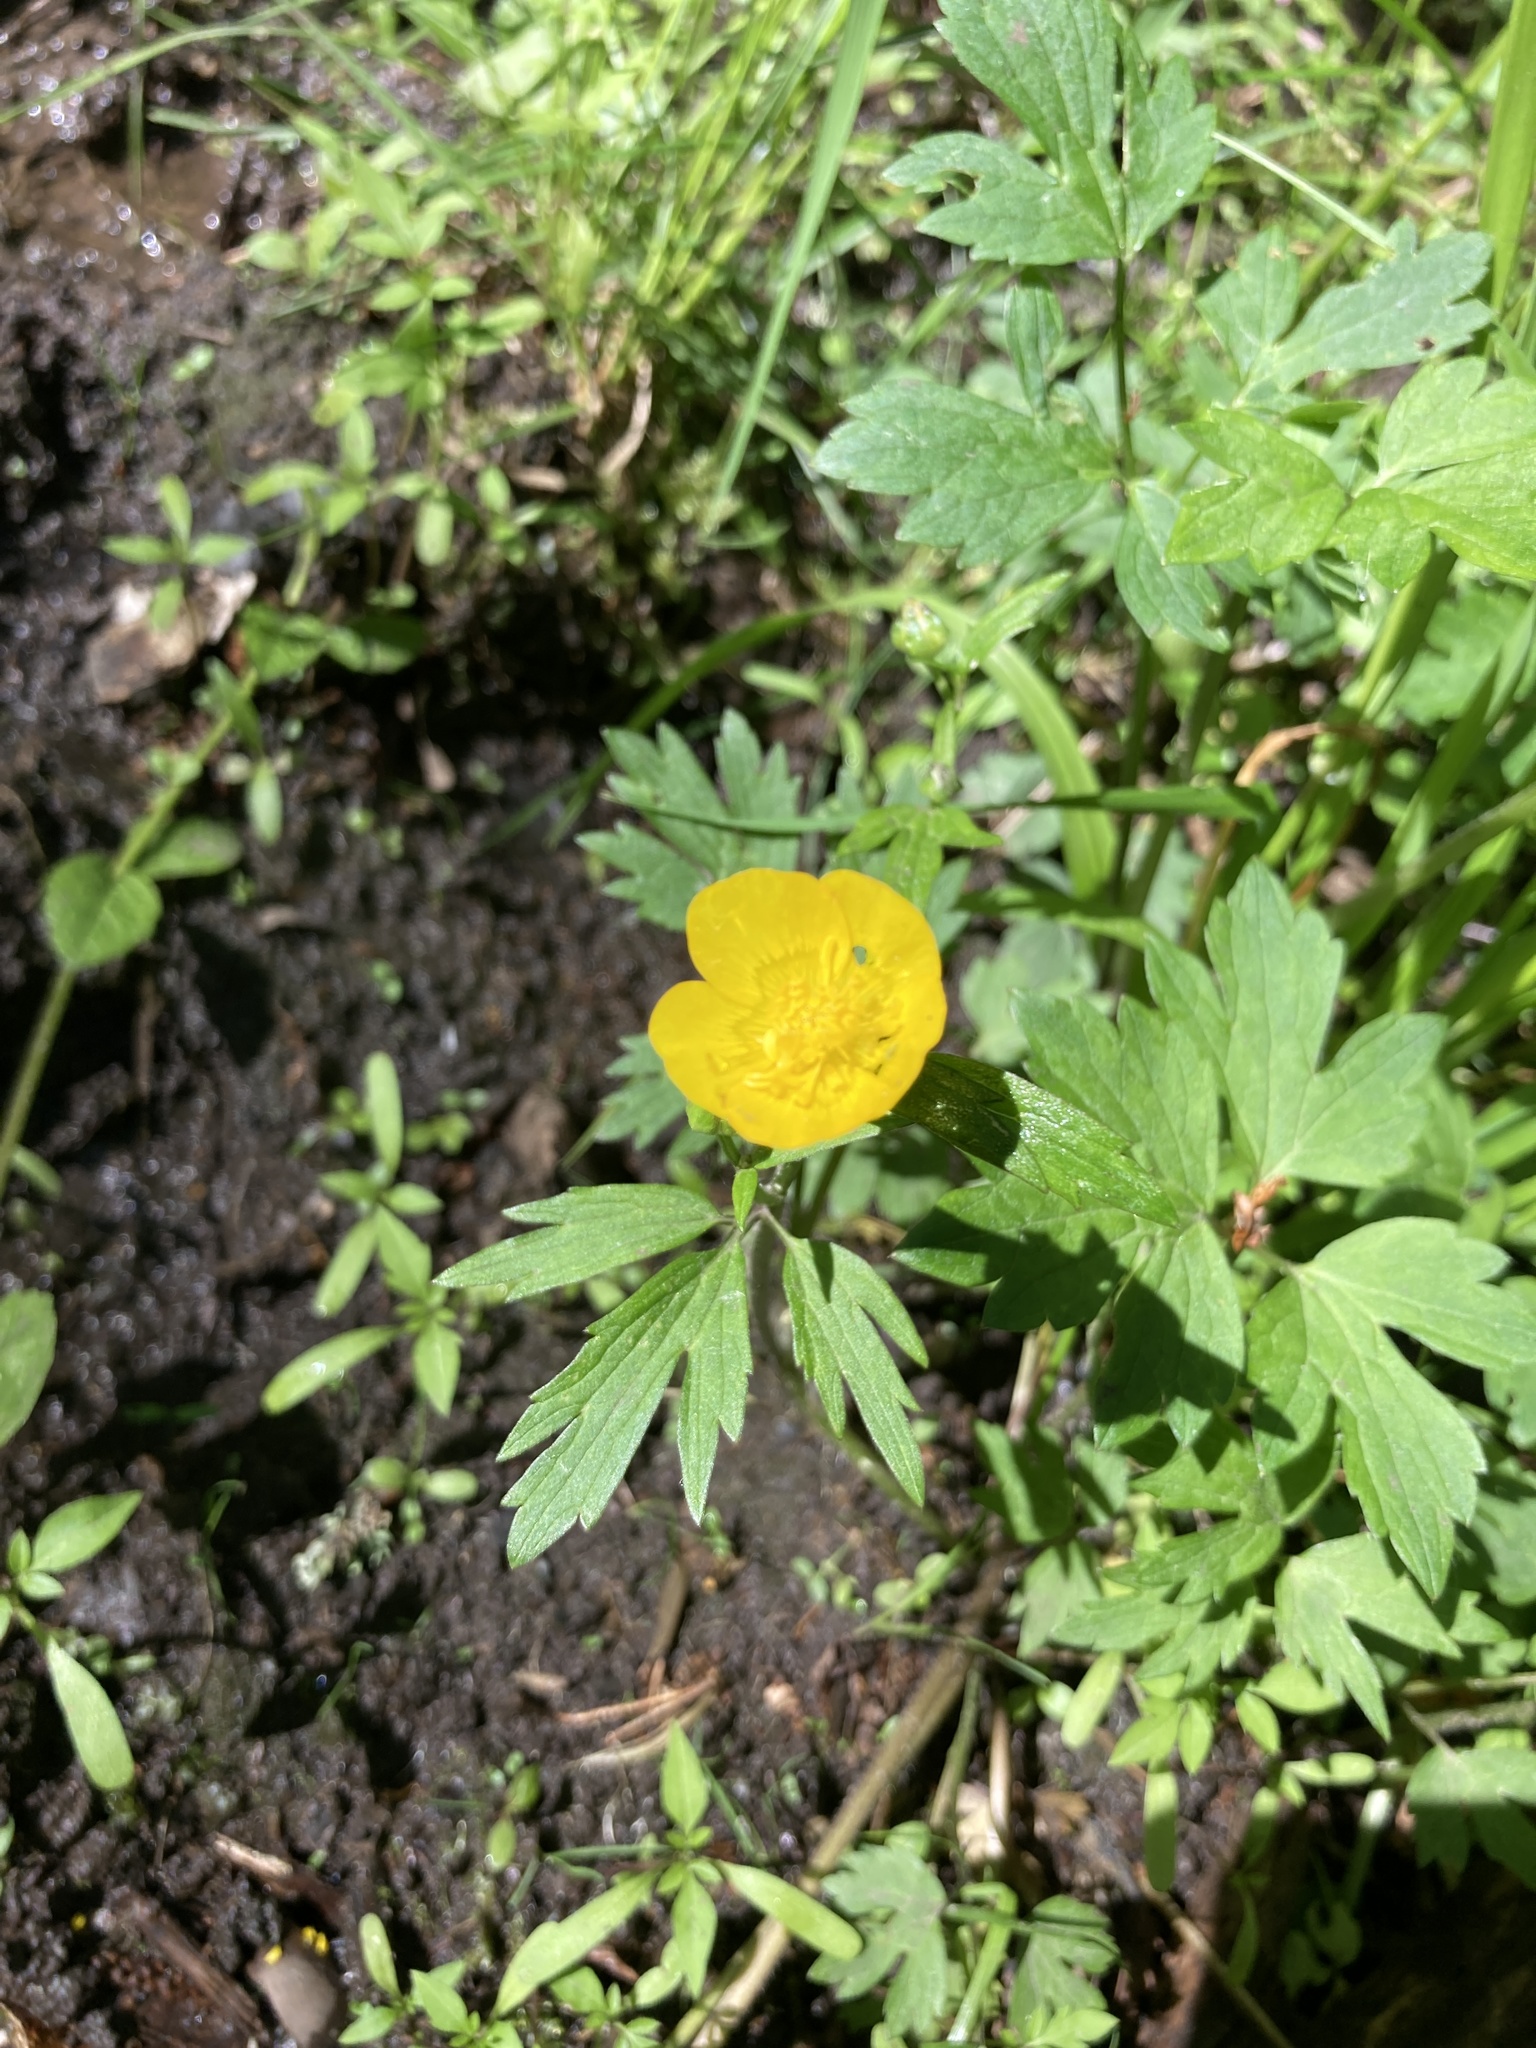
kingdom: Plantae
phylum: Tracheophyta
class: Magnoliopsida
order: Ranunculales
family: Ranunculaceae
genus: Ranunculus
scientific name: Ranunculus repens
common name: Creeping buttercup
